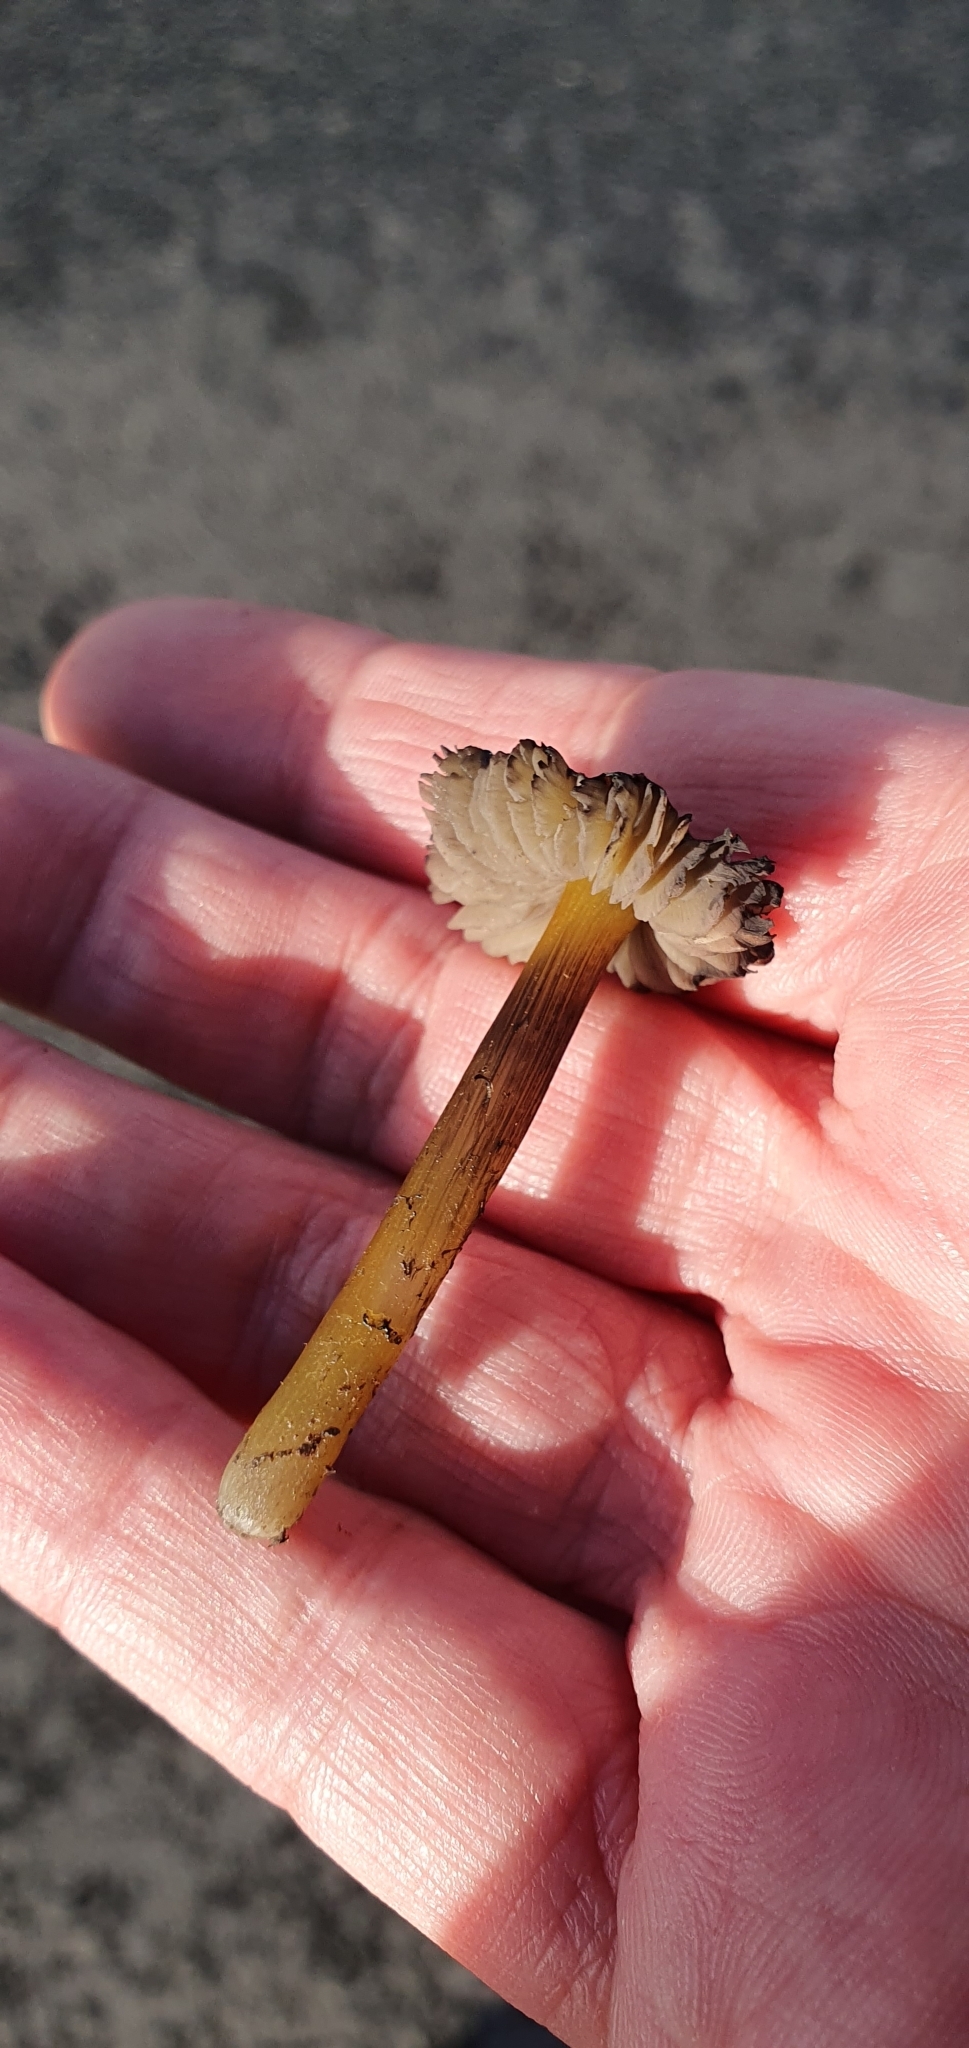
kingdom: Fungi
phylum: Basidiomycota
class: Agaricomycetes
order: Agaricales
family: Hygrophoraceae
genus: Hygrocybe
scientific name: Hygrocybe conica
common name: Blackening wax-cap
